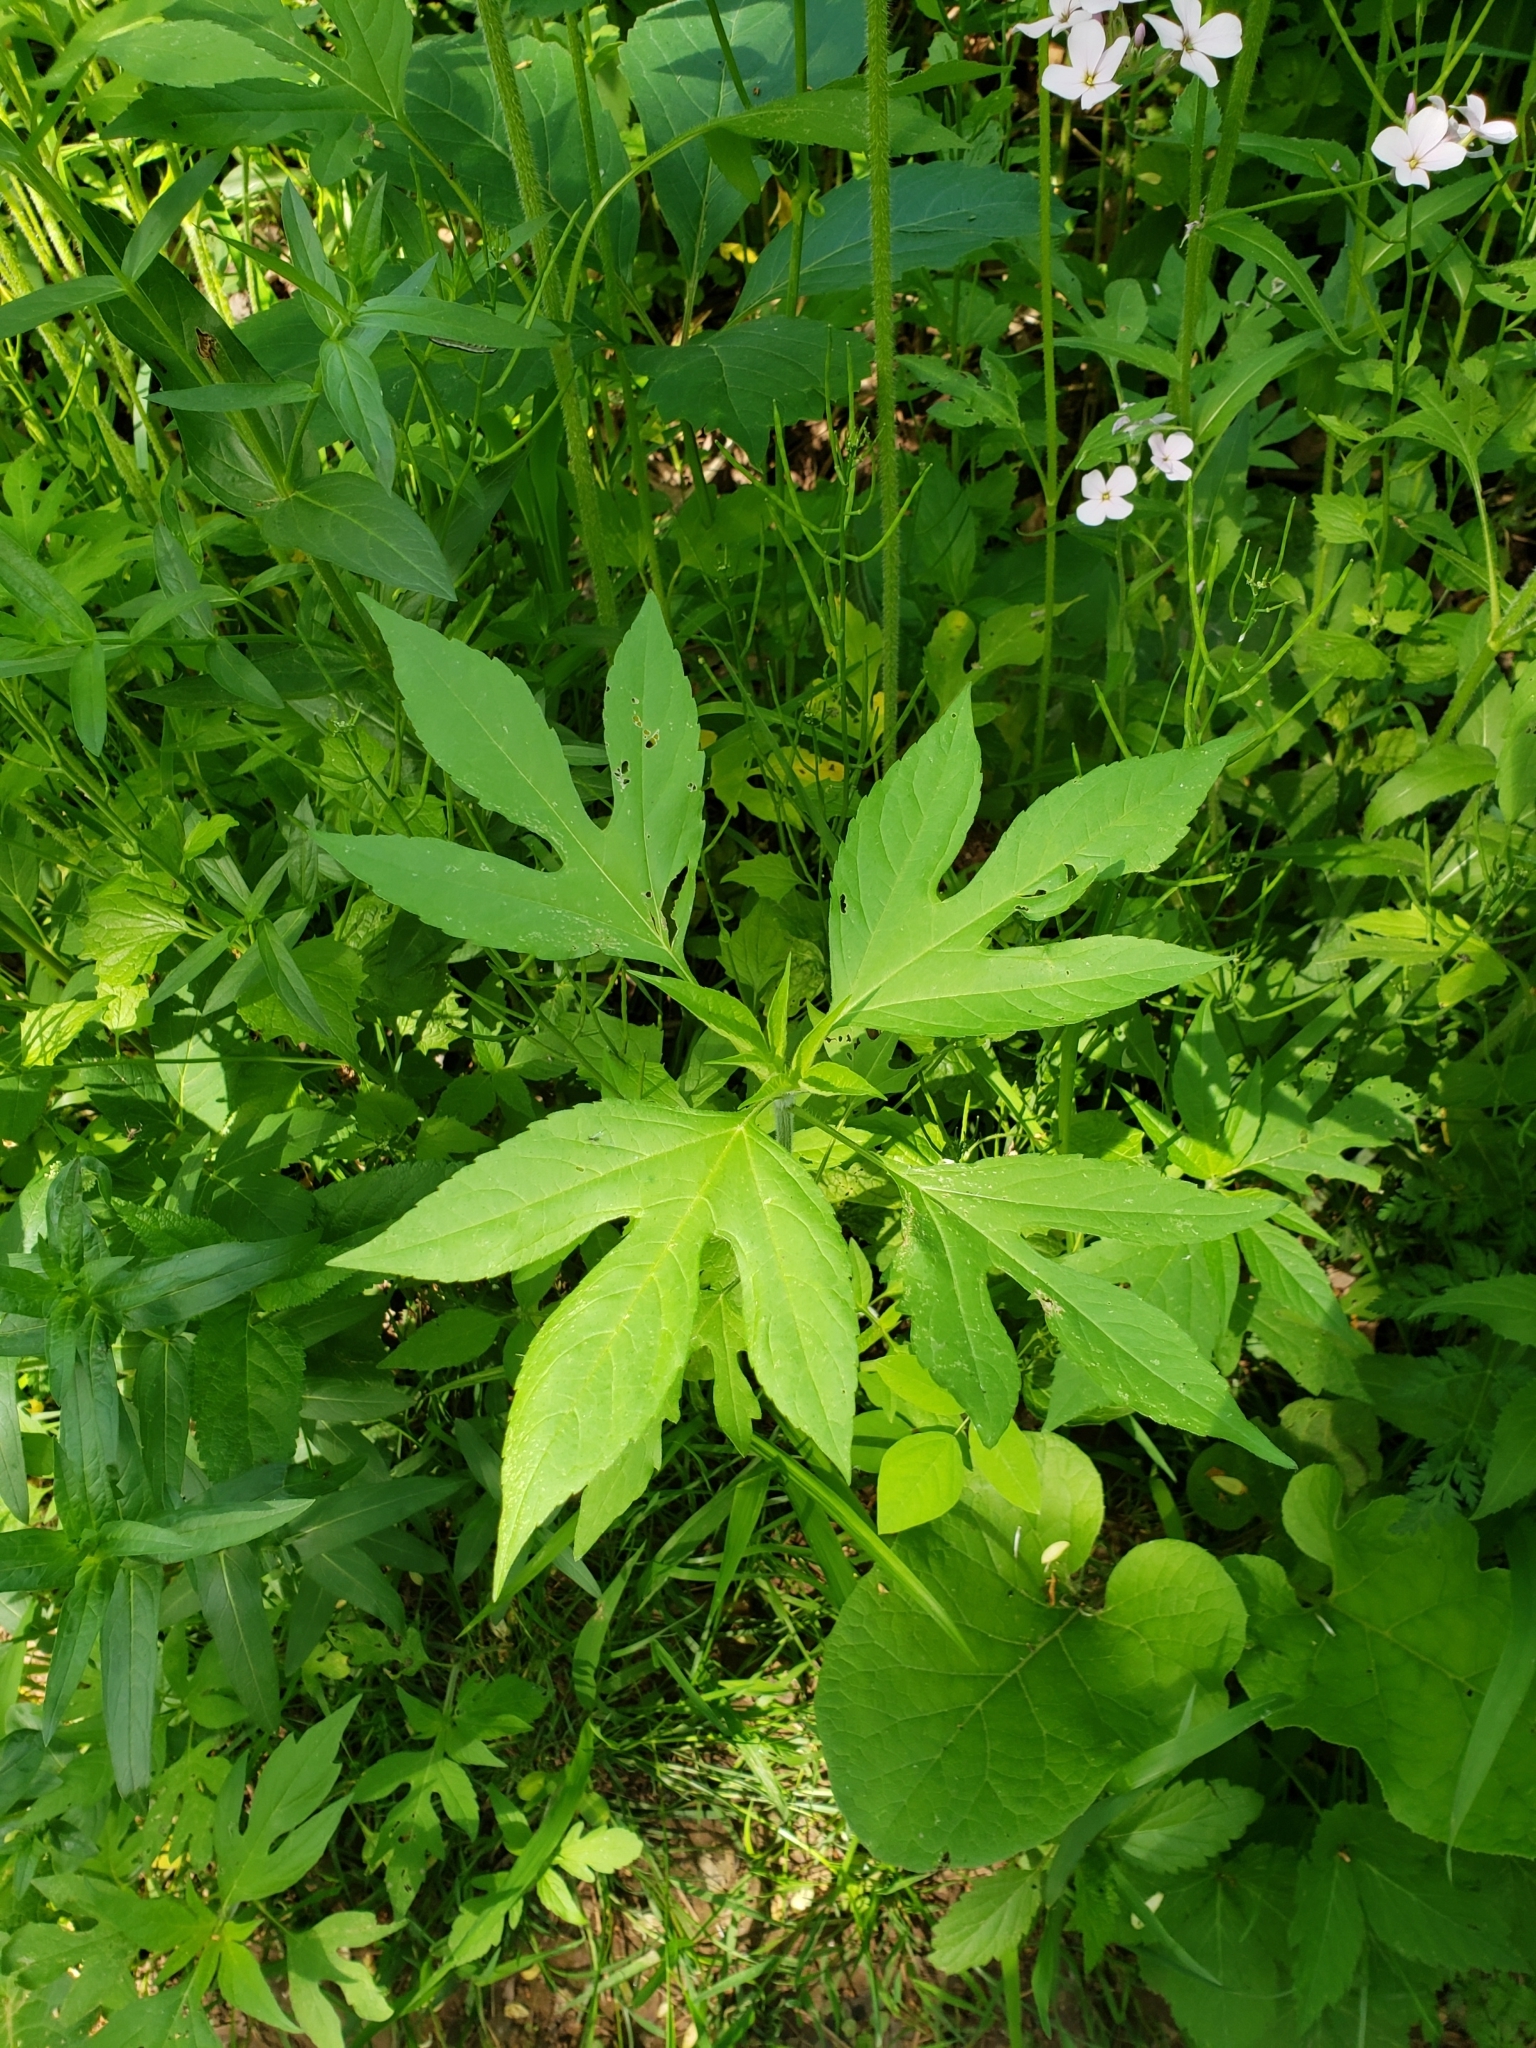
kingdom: Plantae
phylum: Tracheophyta
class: Magnoliopsida
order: Asterales
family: Asteraceae
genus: Ambrosia
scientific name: Ambrosia trifida
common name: Giant ragweed
